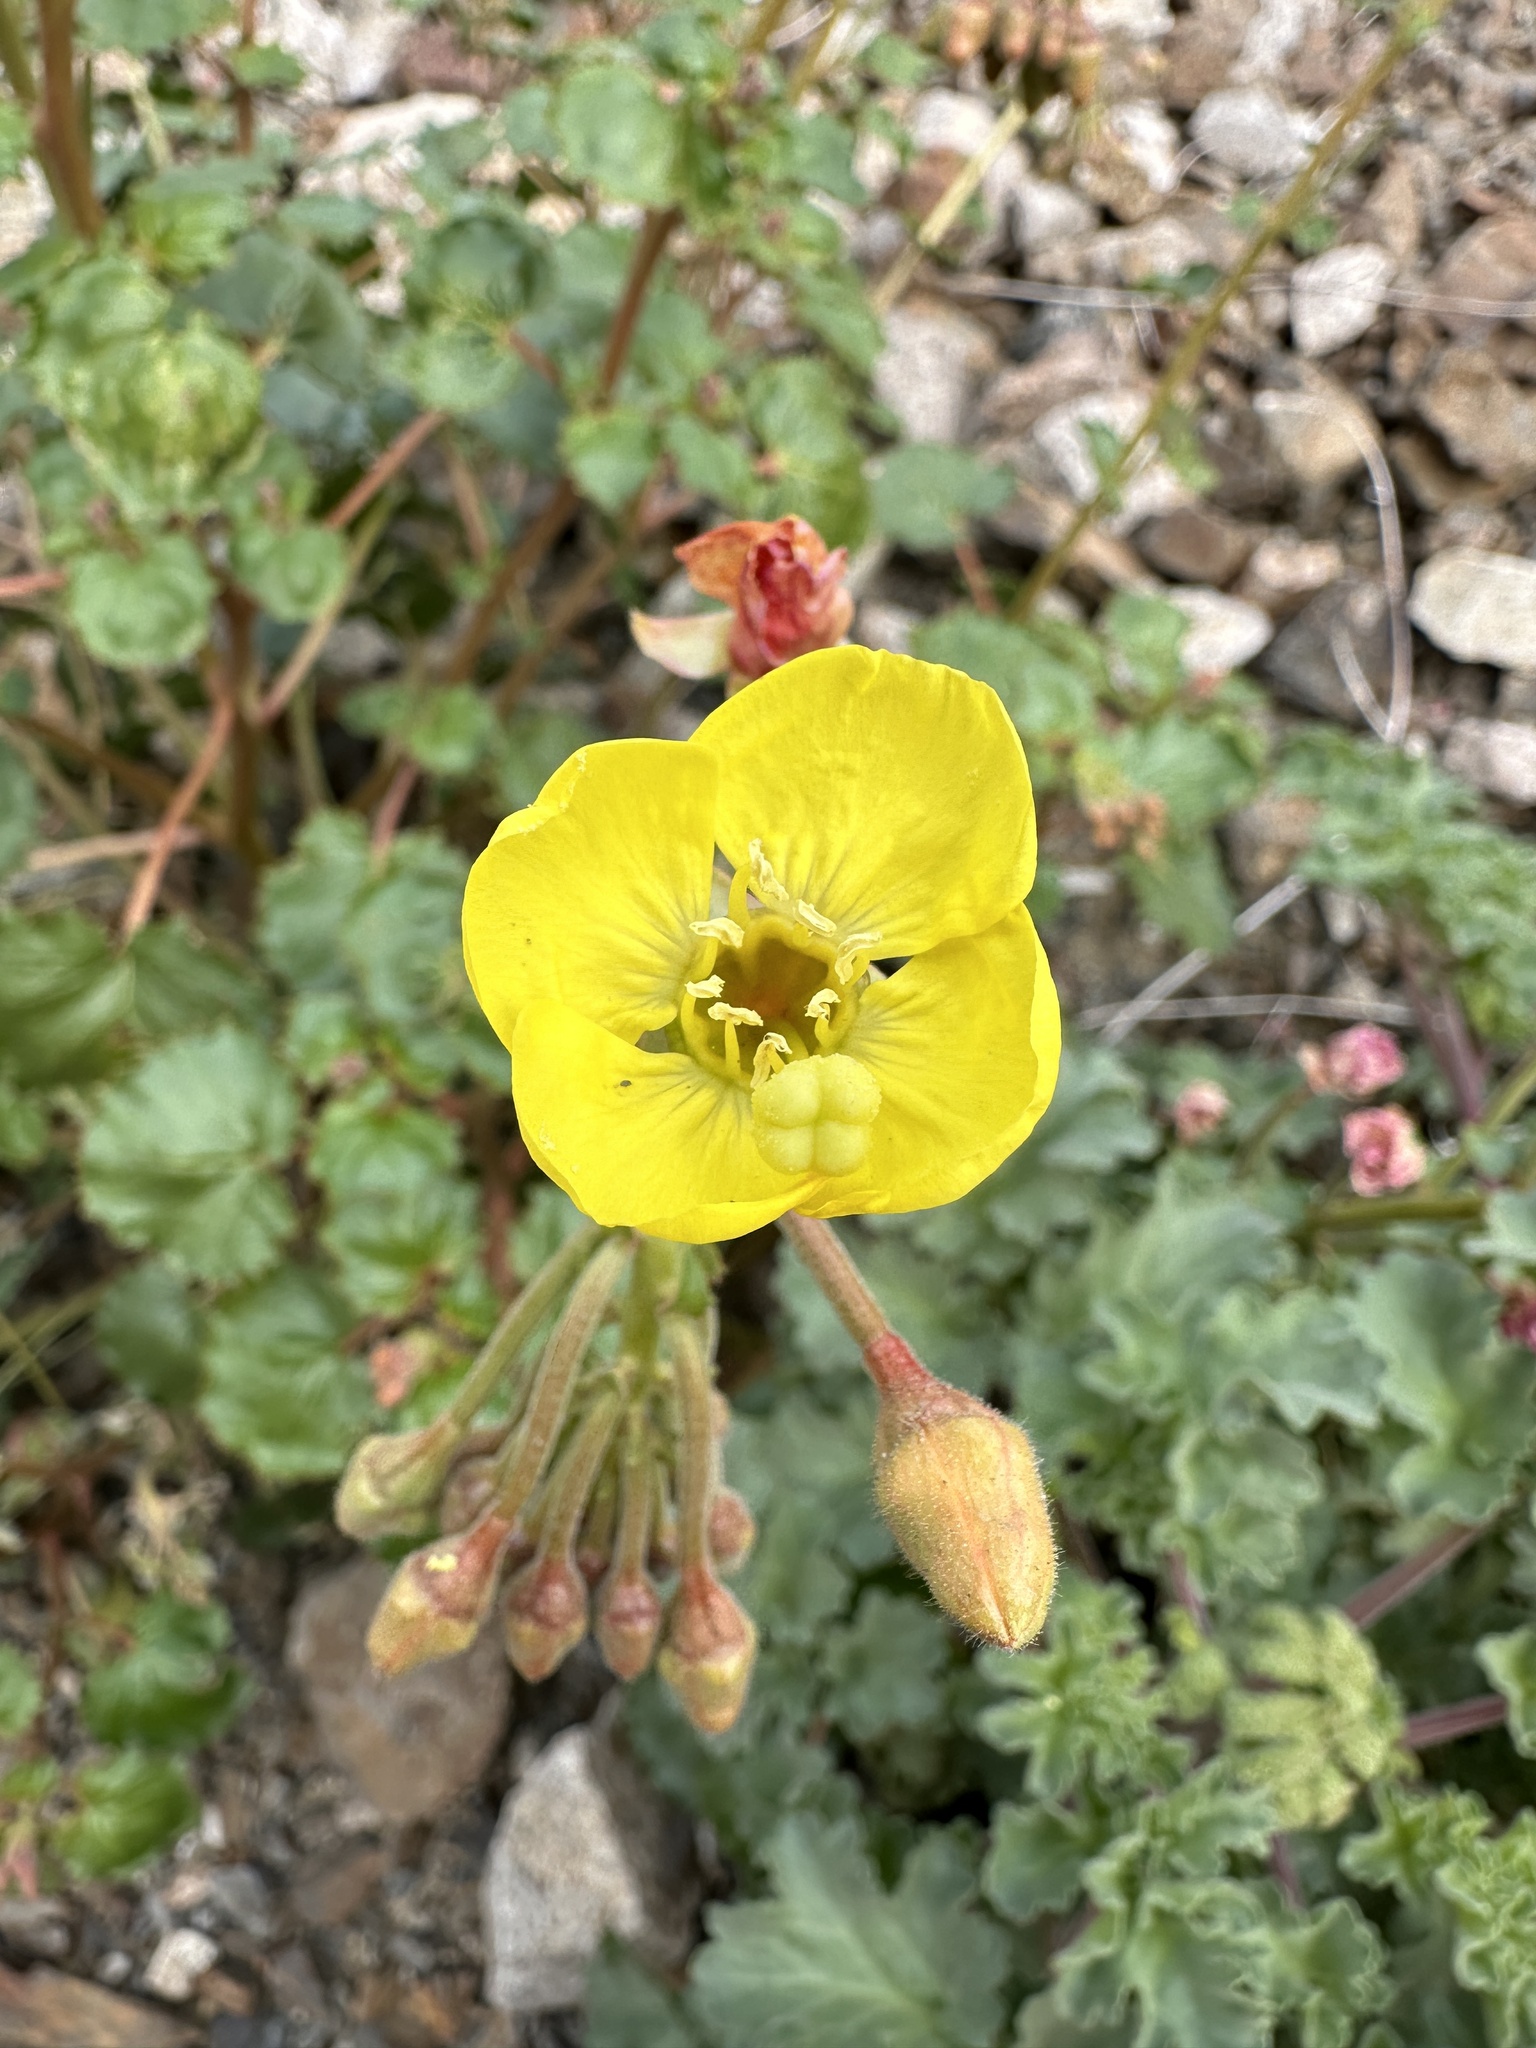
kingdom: Plantae
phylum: Tracheophyta
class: Magnoliopsida
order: Myrtales
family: Onagraceae
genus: Chylismia
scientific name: Chylismia cardiophylla
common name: Heartleaf suncup
